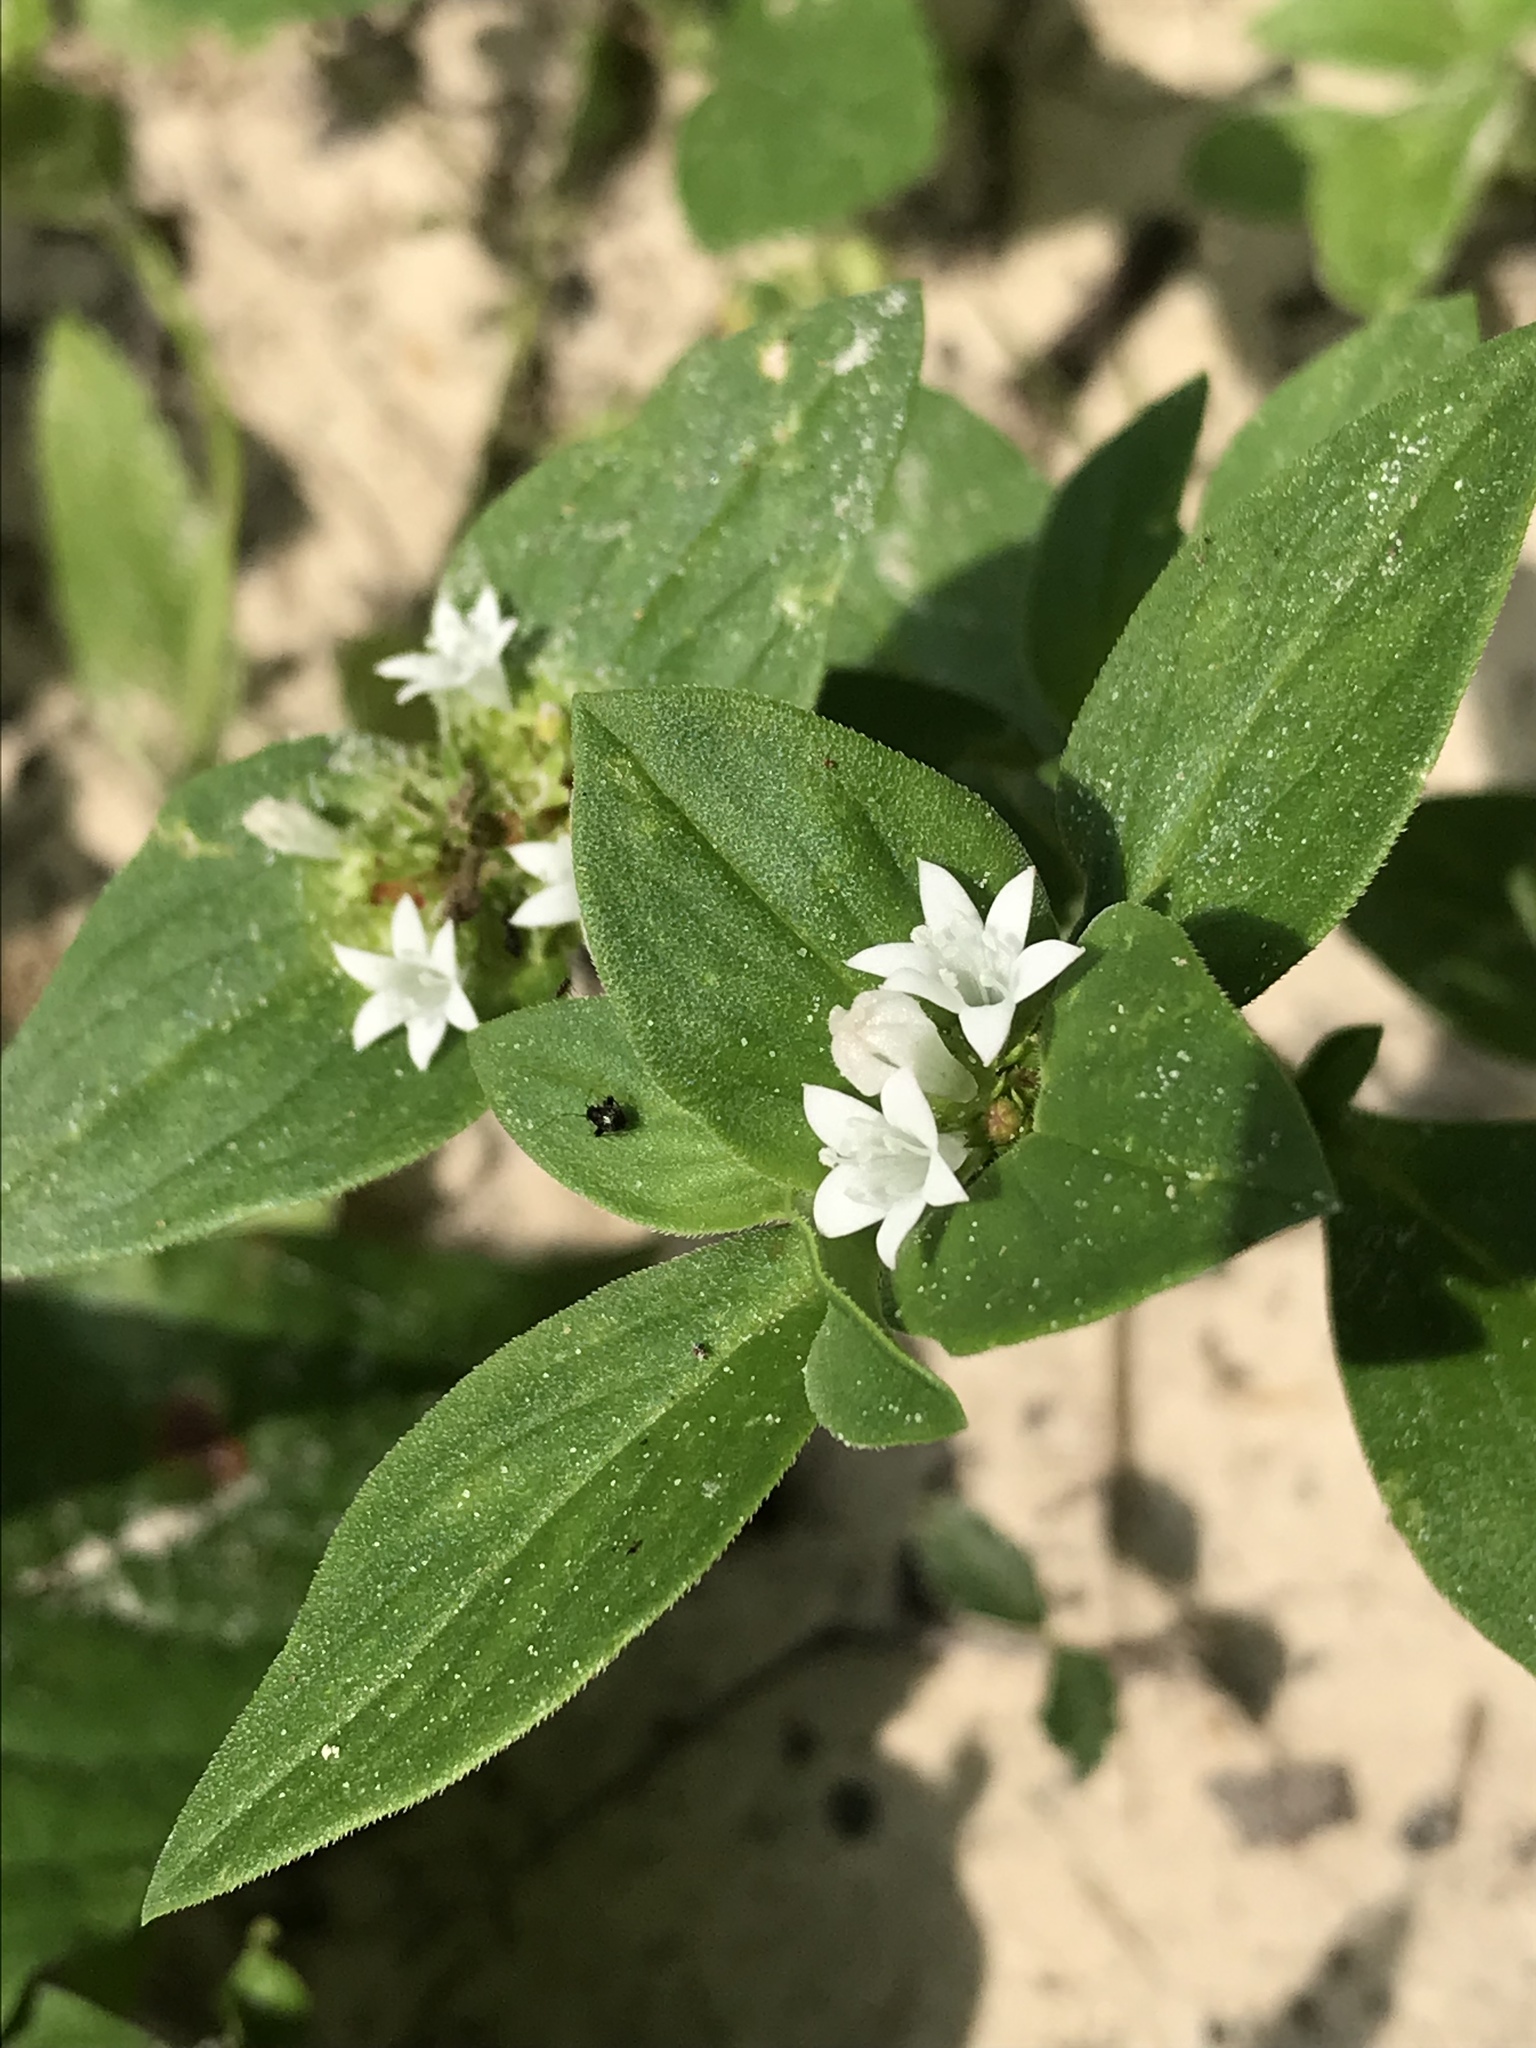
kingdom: Plantae
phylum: Tracheophyta
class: Magnoliopsida
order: Gentianales
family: Rubiaceae
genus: Richardia
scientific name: Richardia scabra
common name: Rough mexican clover
